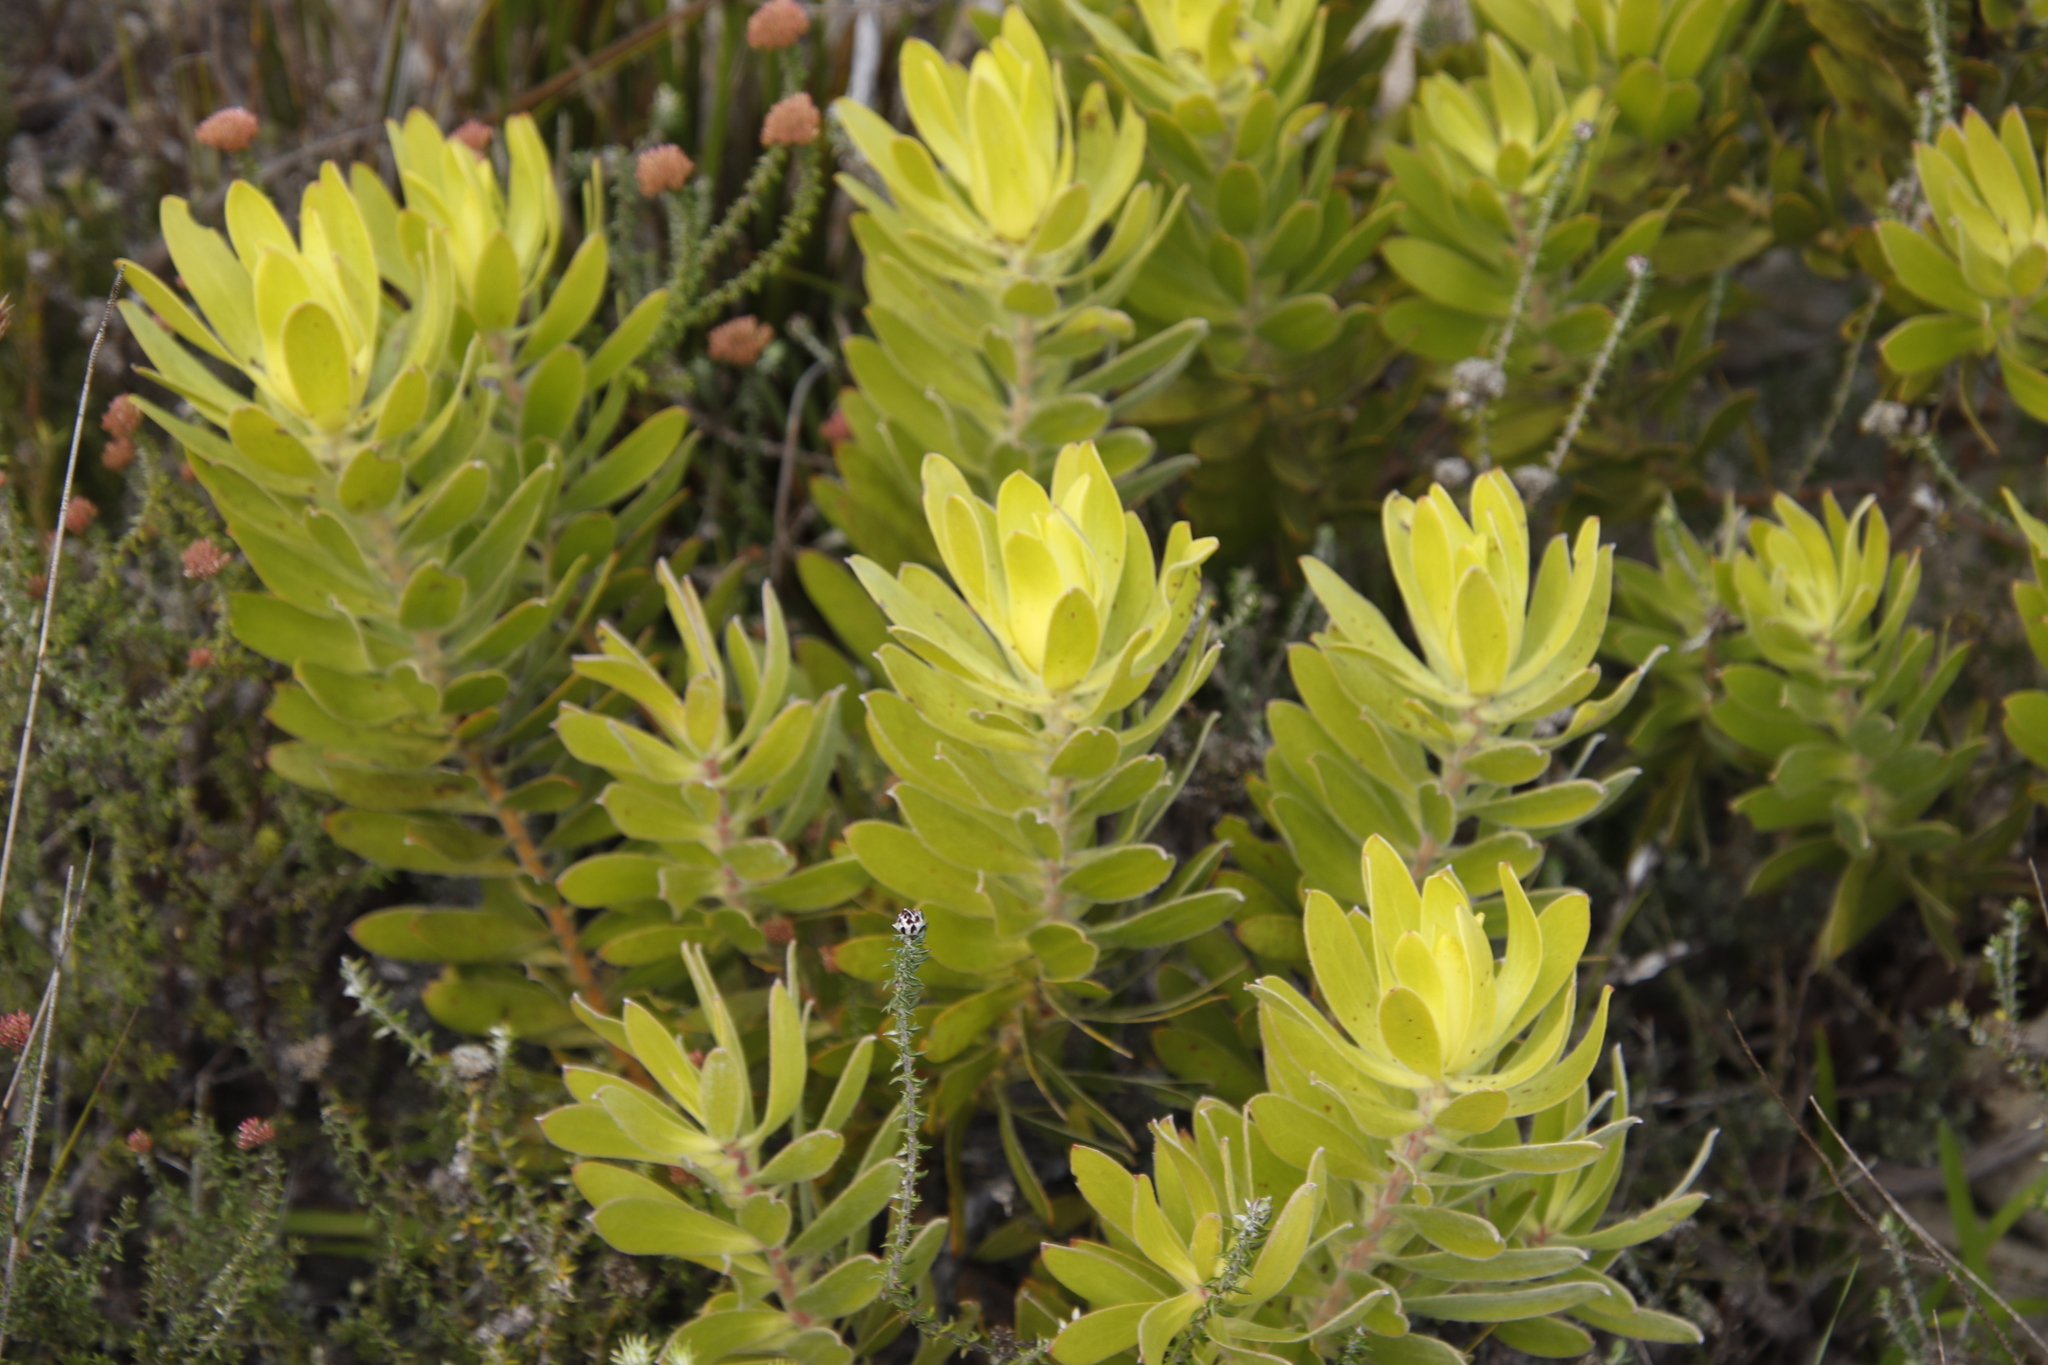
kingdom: Plantae
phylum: Tracheophyta
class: Magnoliopsida
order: Proteales
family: Proteaceae
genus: Leucadendron
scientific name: Leucadendron laureolum
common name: Golden sunshinebush
